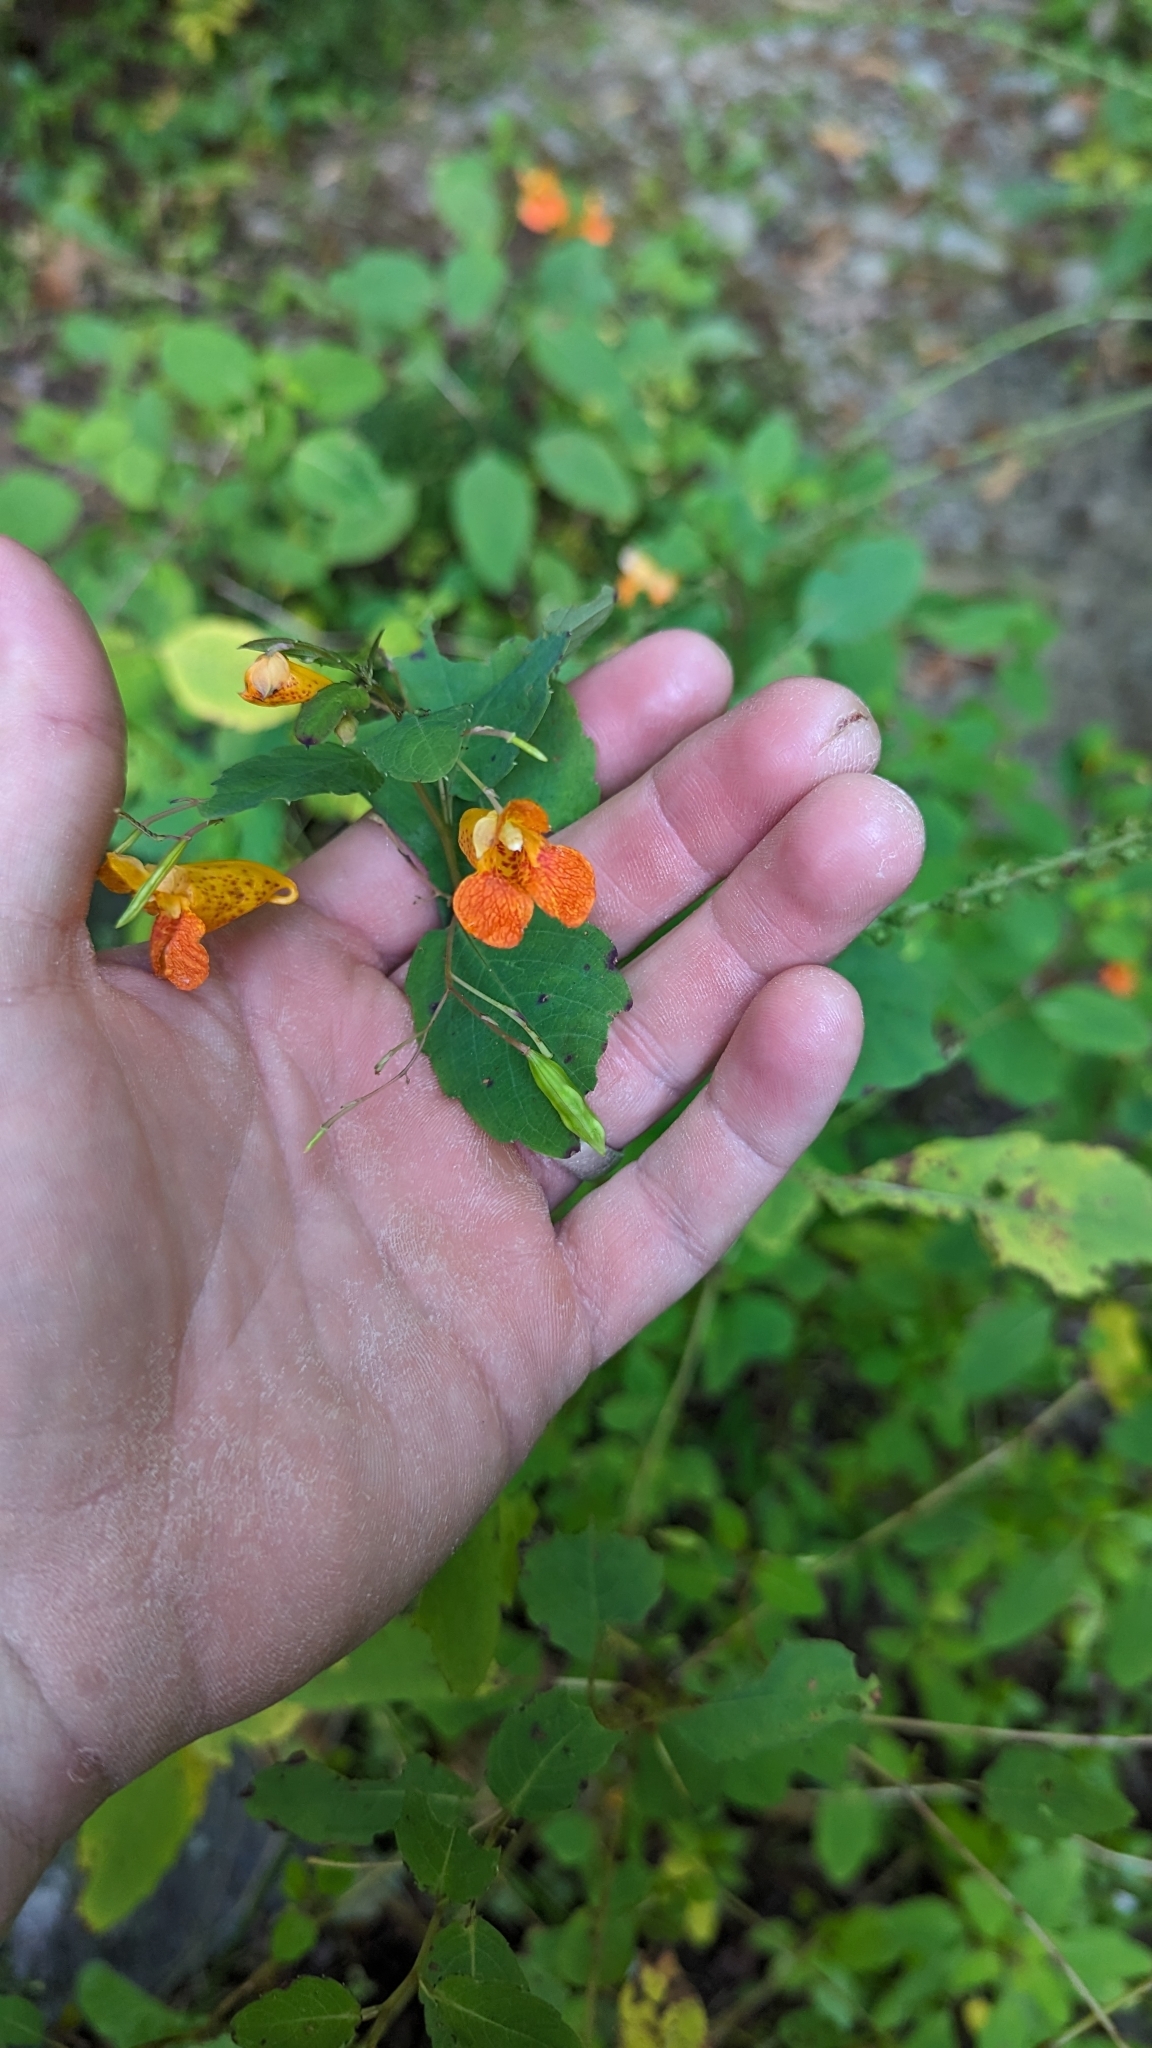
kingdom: Plantae
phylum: Tracheophyta
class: Magnoliopsida
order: Ericales
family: Balsaminaceae
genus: Impatiens
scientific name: Impatiens capensis
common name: Orange balsam
